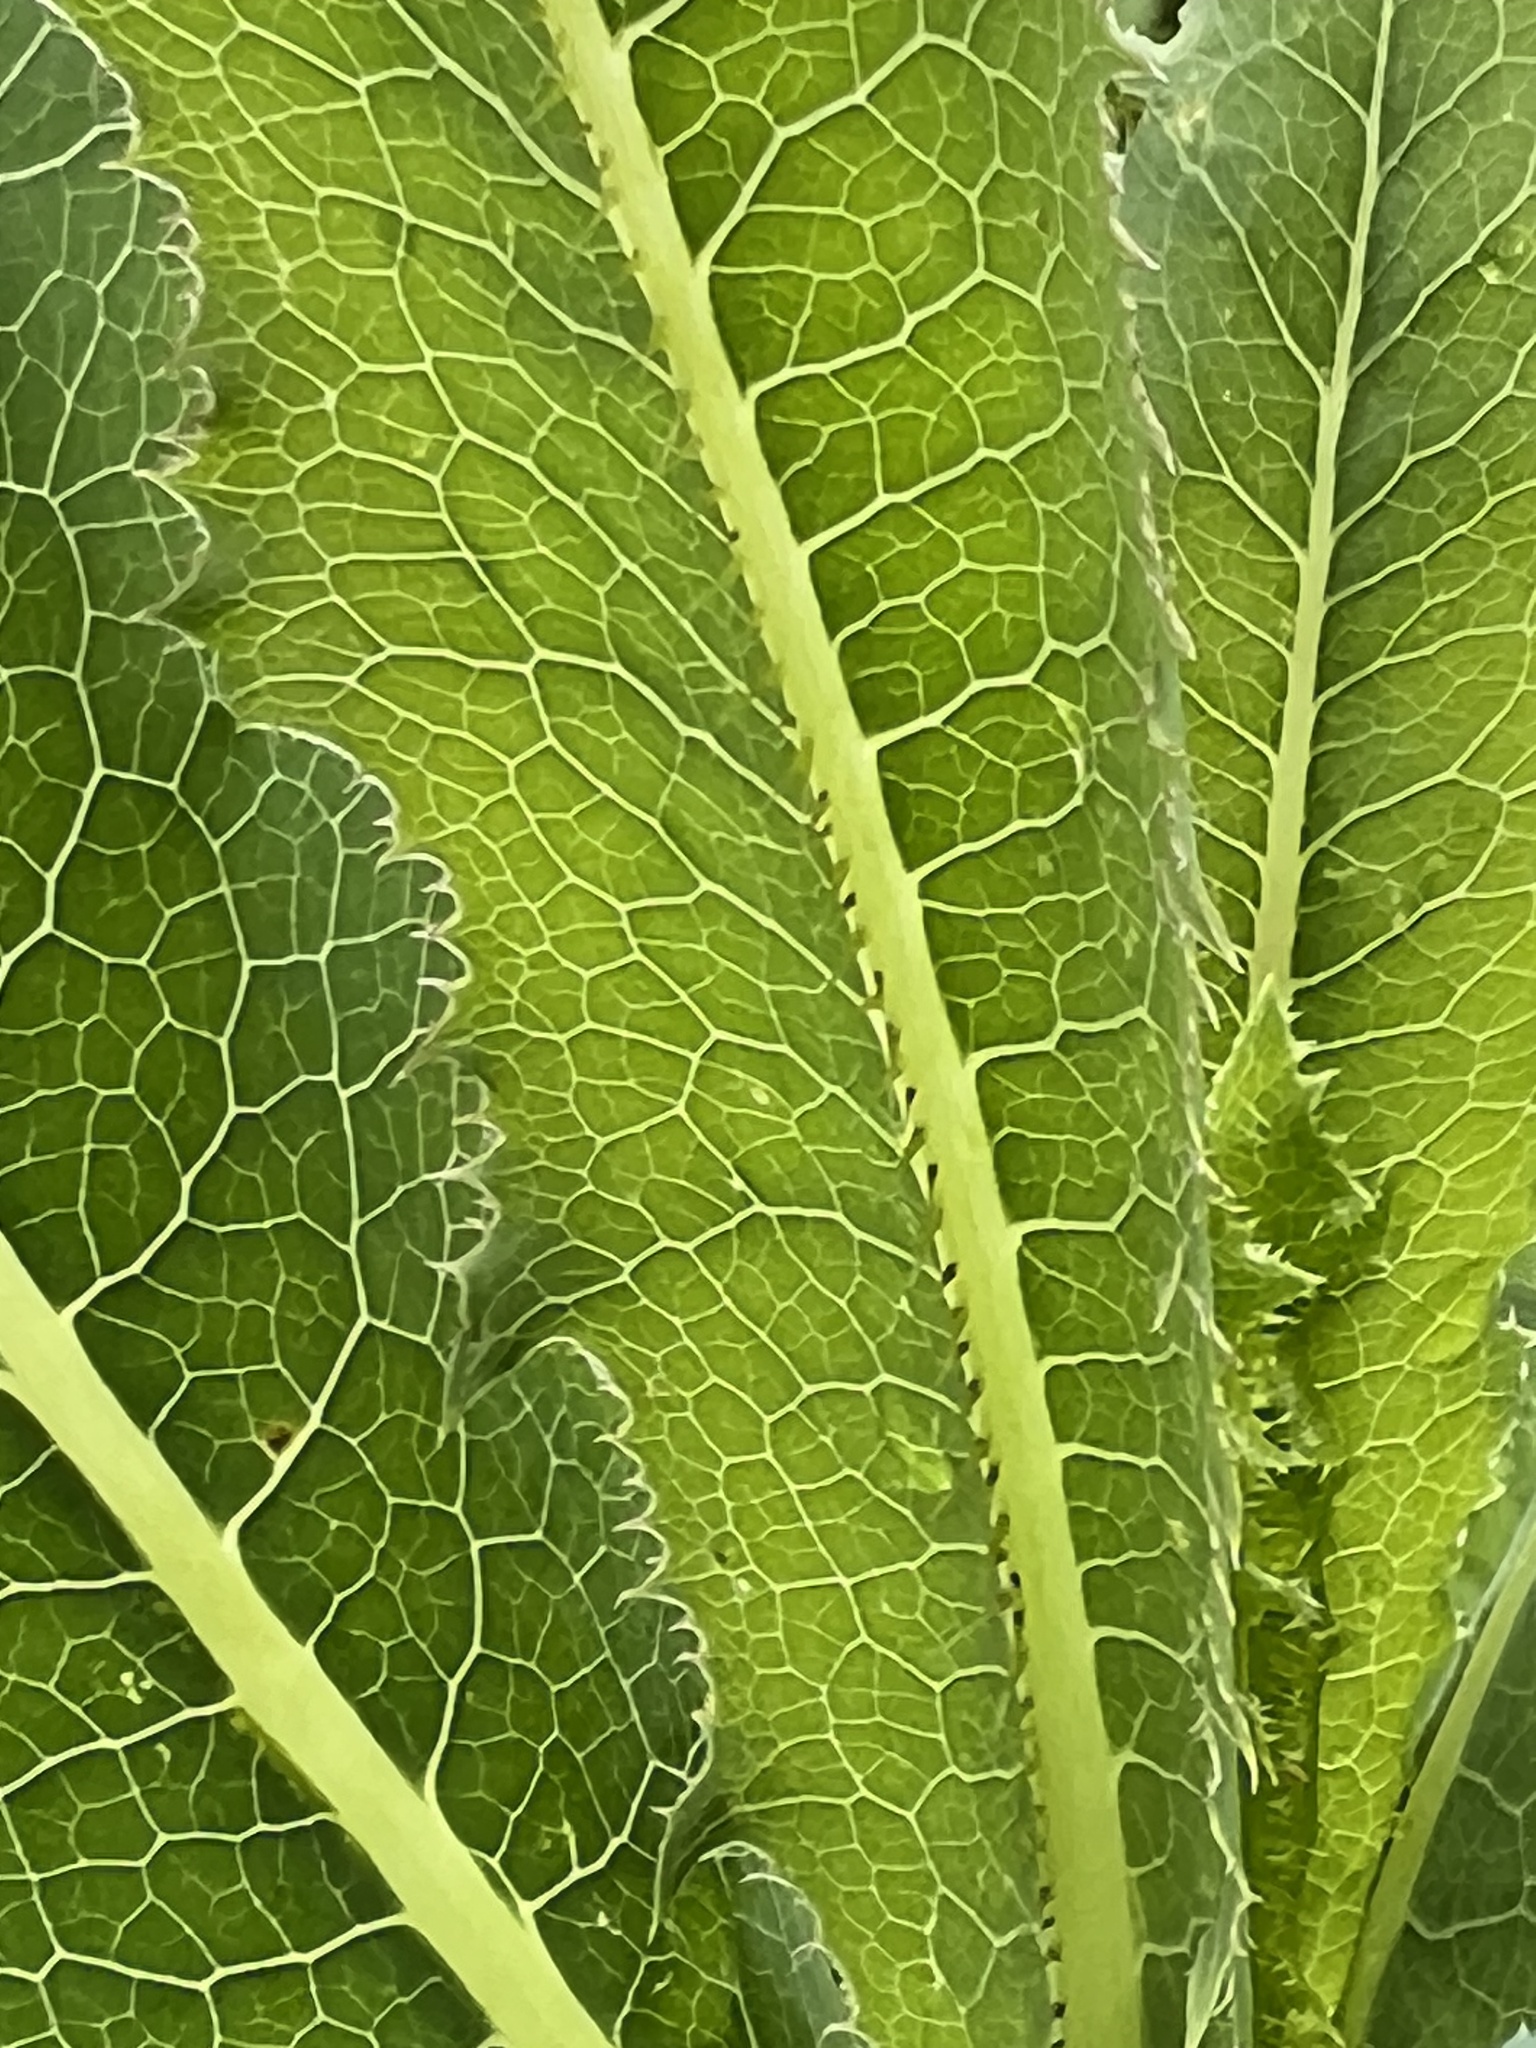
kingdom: Plantae
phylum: Tracheophyta
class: Magnoliopsida
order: Asterales
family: Asteraceae
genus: Lactuca
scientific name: Lactuca serriola
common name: Prickly lettuce
